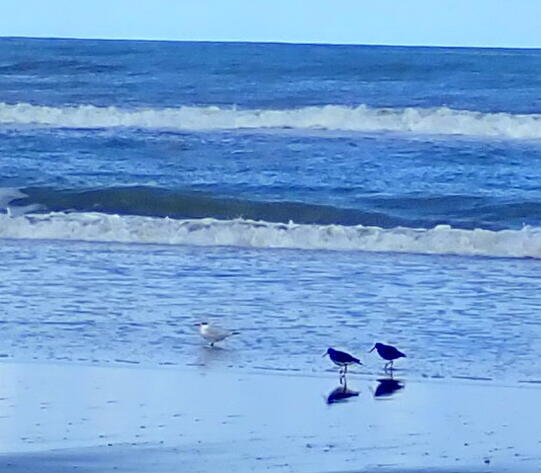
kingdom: Animalia
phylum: Chordata
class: Aves
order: Charadriiformes
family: Haematopodidae
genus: Haematopus
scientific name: Haematopus unicolor
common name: Variable oystercatcher
